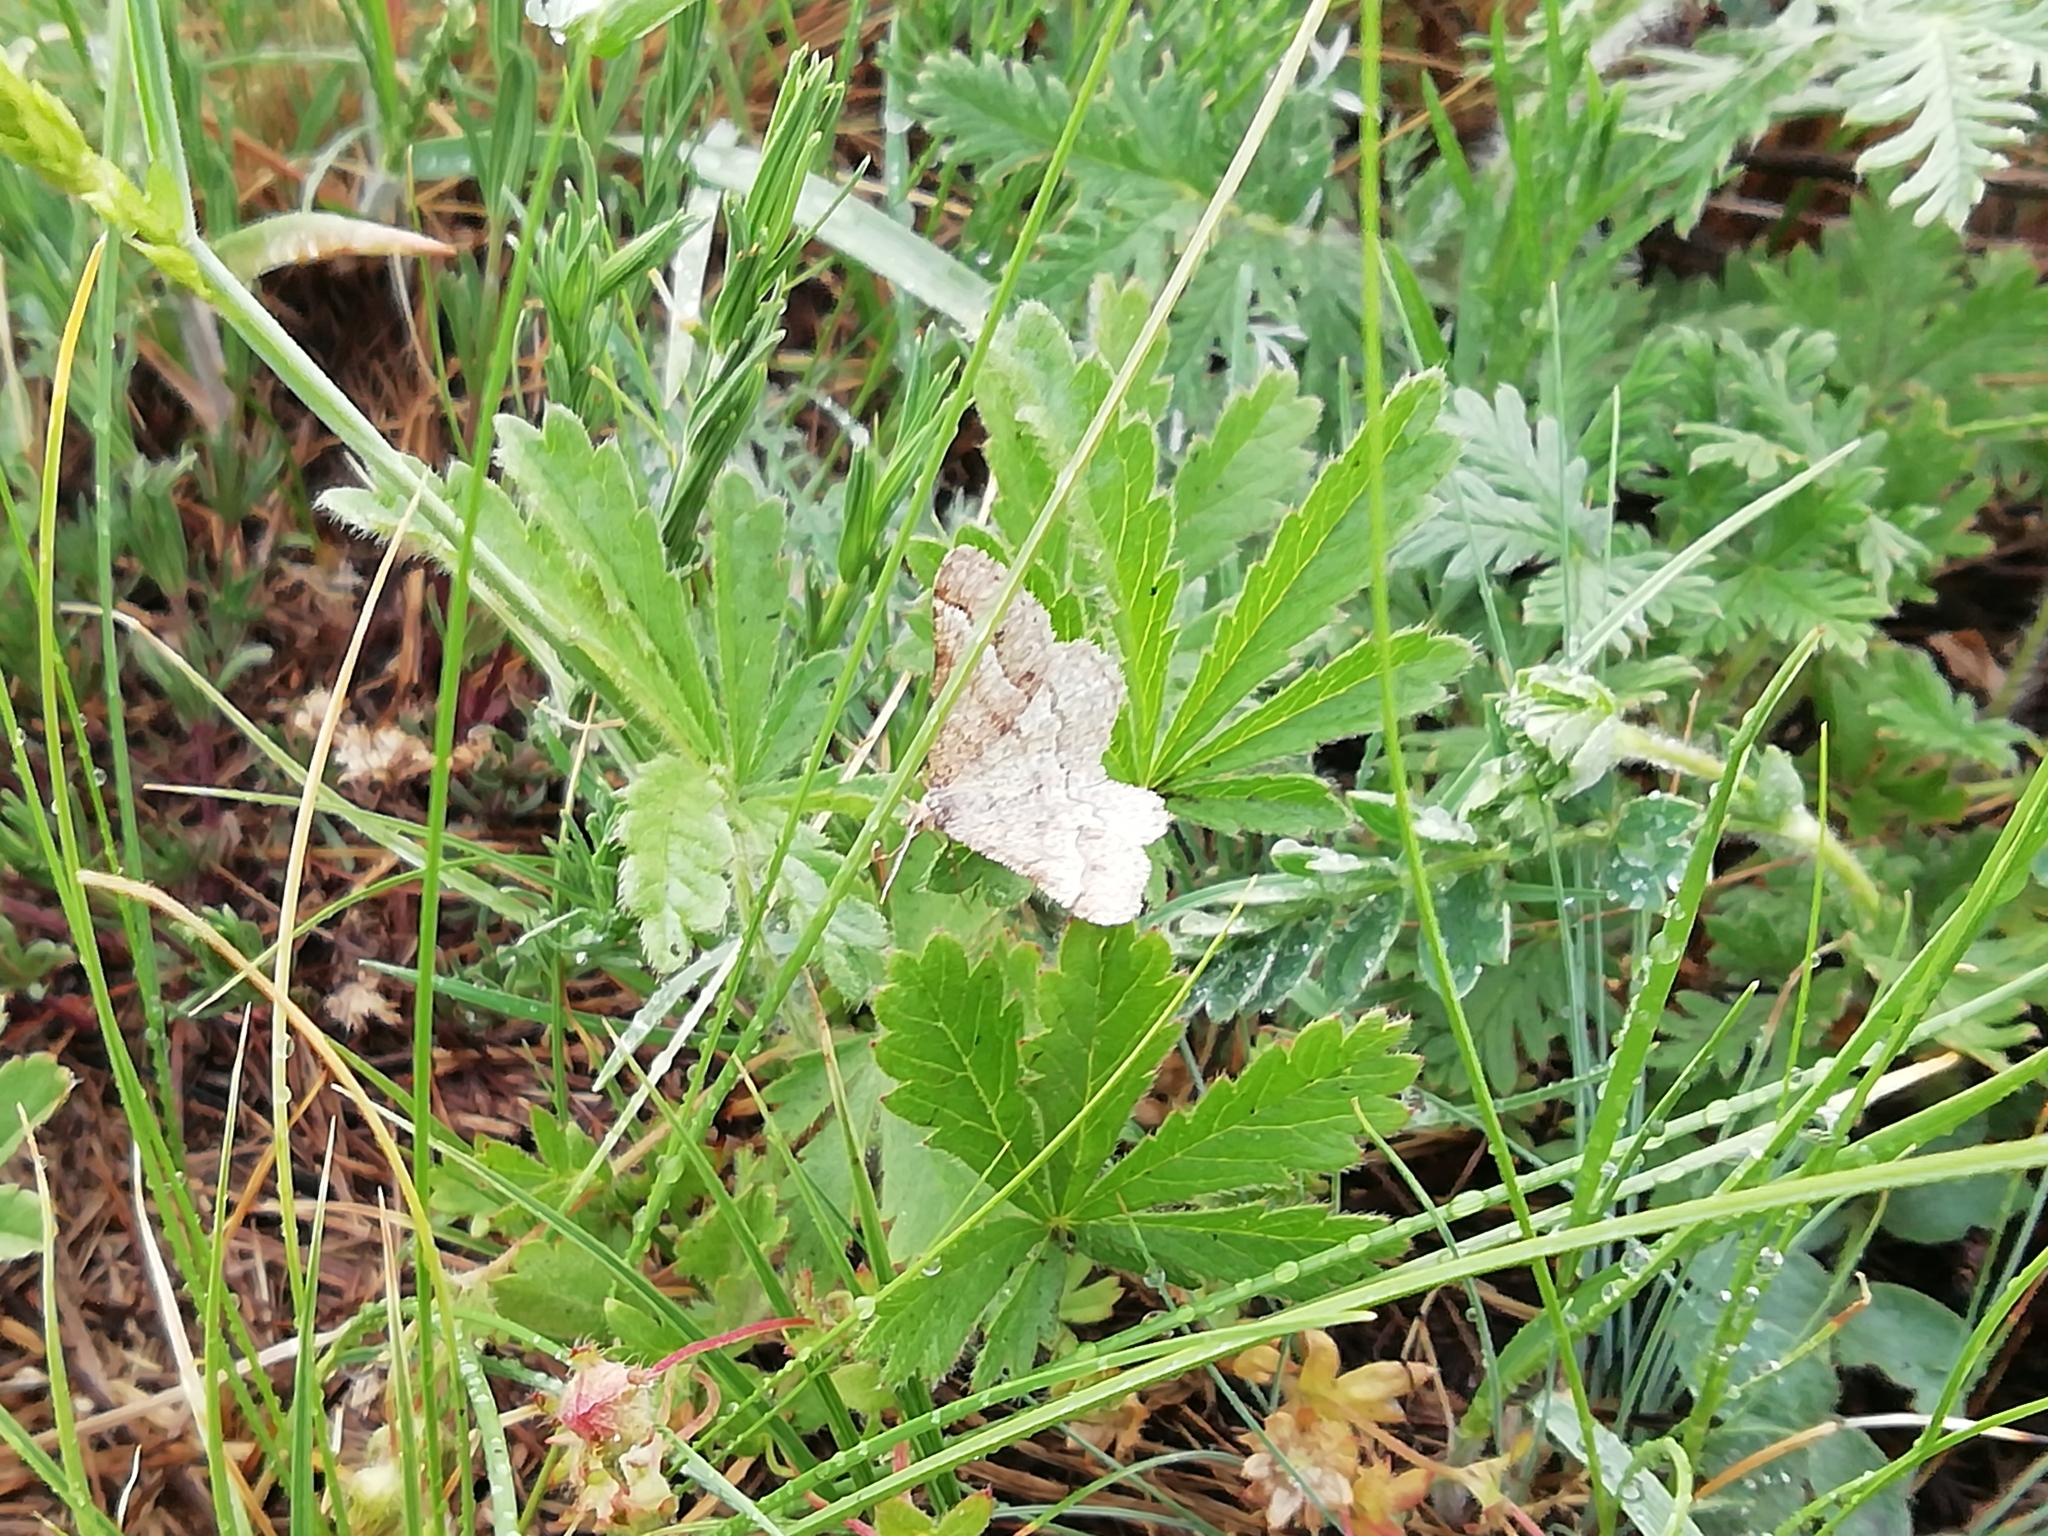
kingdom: Animalia
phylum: Arthropoda
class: Insecta
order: Lepidoptera
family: Geometridae
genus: Tephrina
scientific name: Tephrina murinaria
